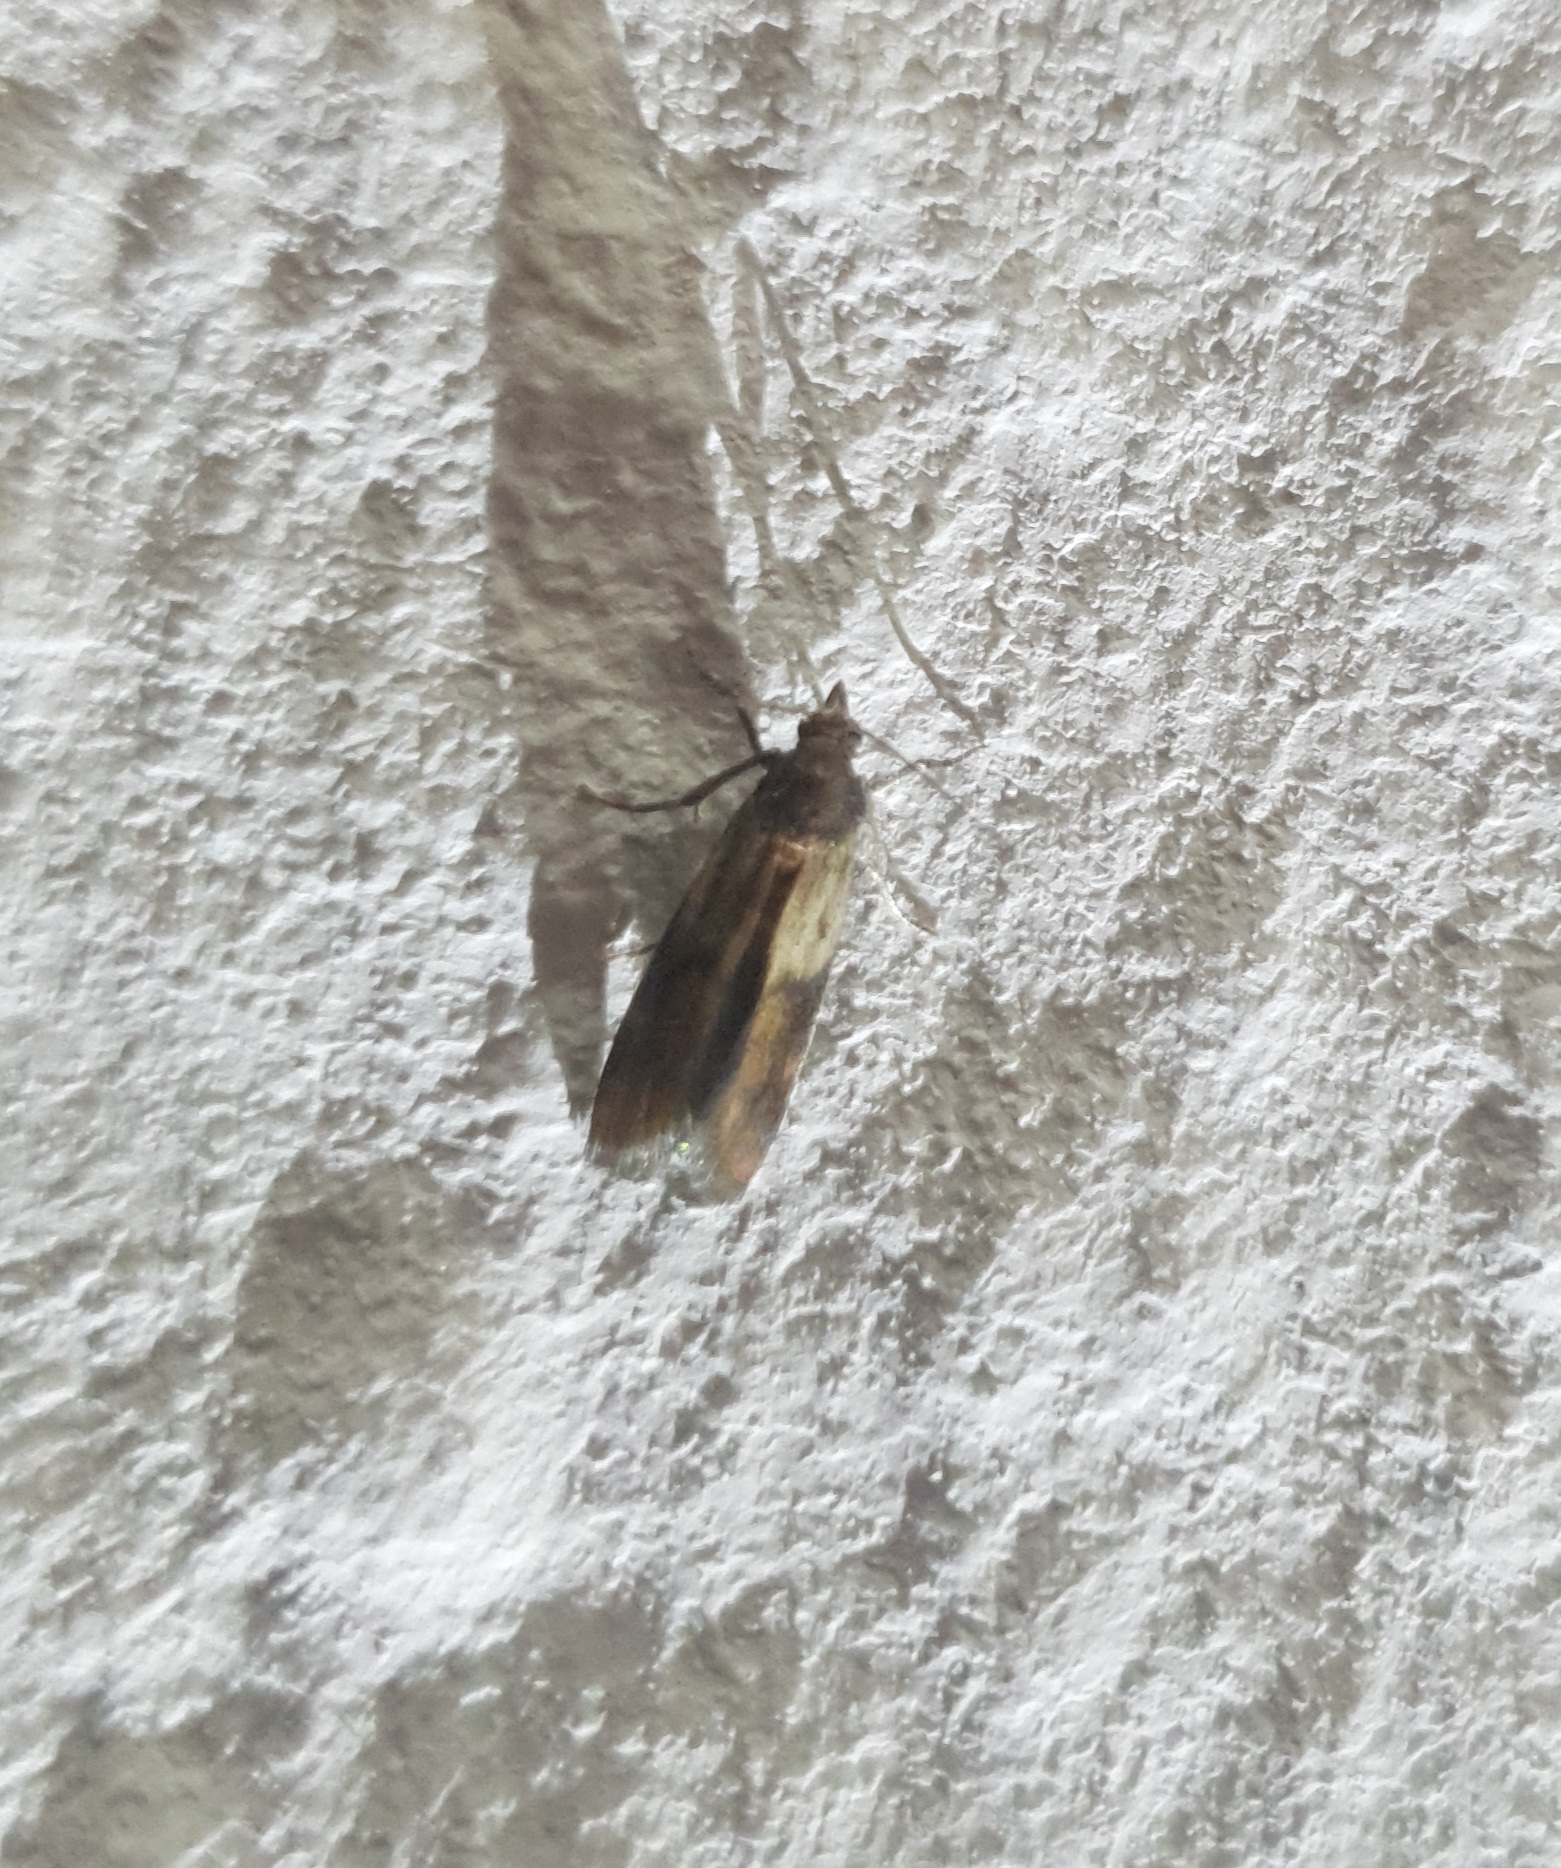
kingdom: Animalia
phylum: Arthropoda
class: Insecta
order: Lepidoptera
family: Pyralidae
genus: Plodia
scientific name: Plodia interpunctella
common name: Indian meal moth
